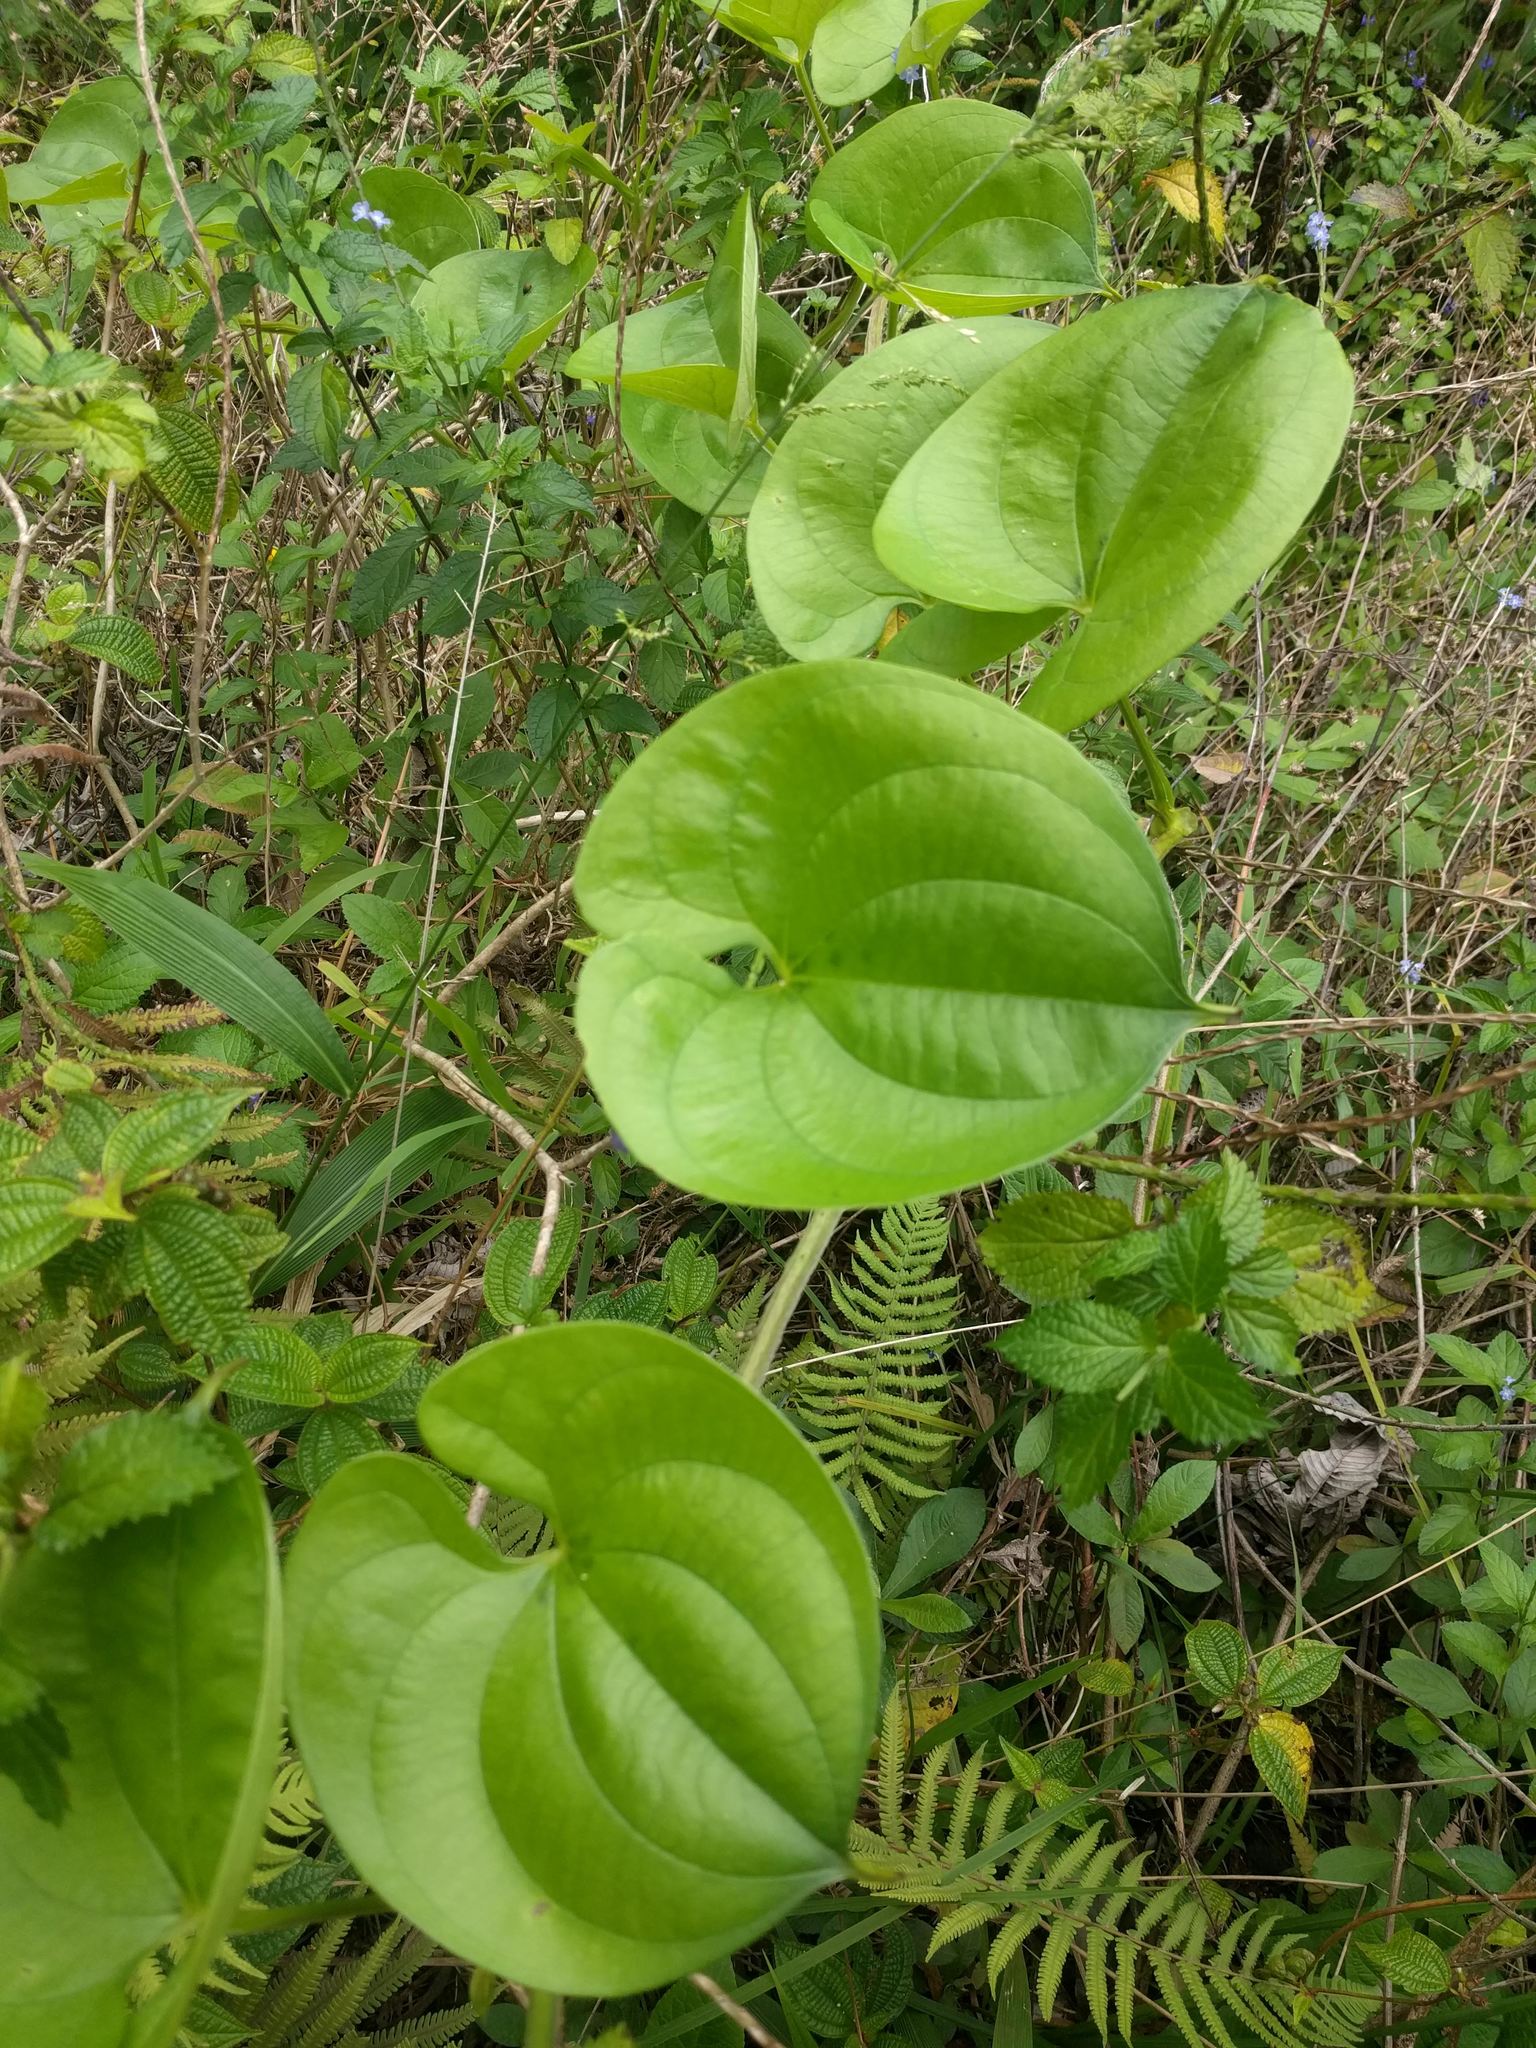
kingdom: Plantae
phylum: Tracheophyta
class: Liliopsida
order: Dioscoreales
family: Dioscoreaceae
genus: Dioscorea
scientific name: Dioscorea alata
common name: Water yam
